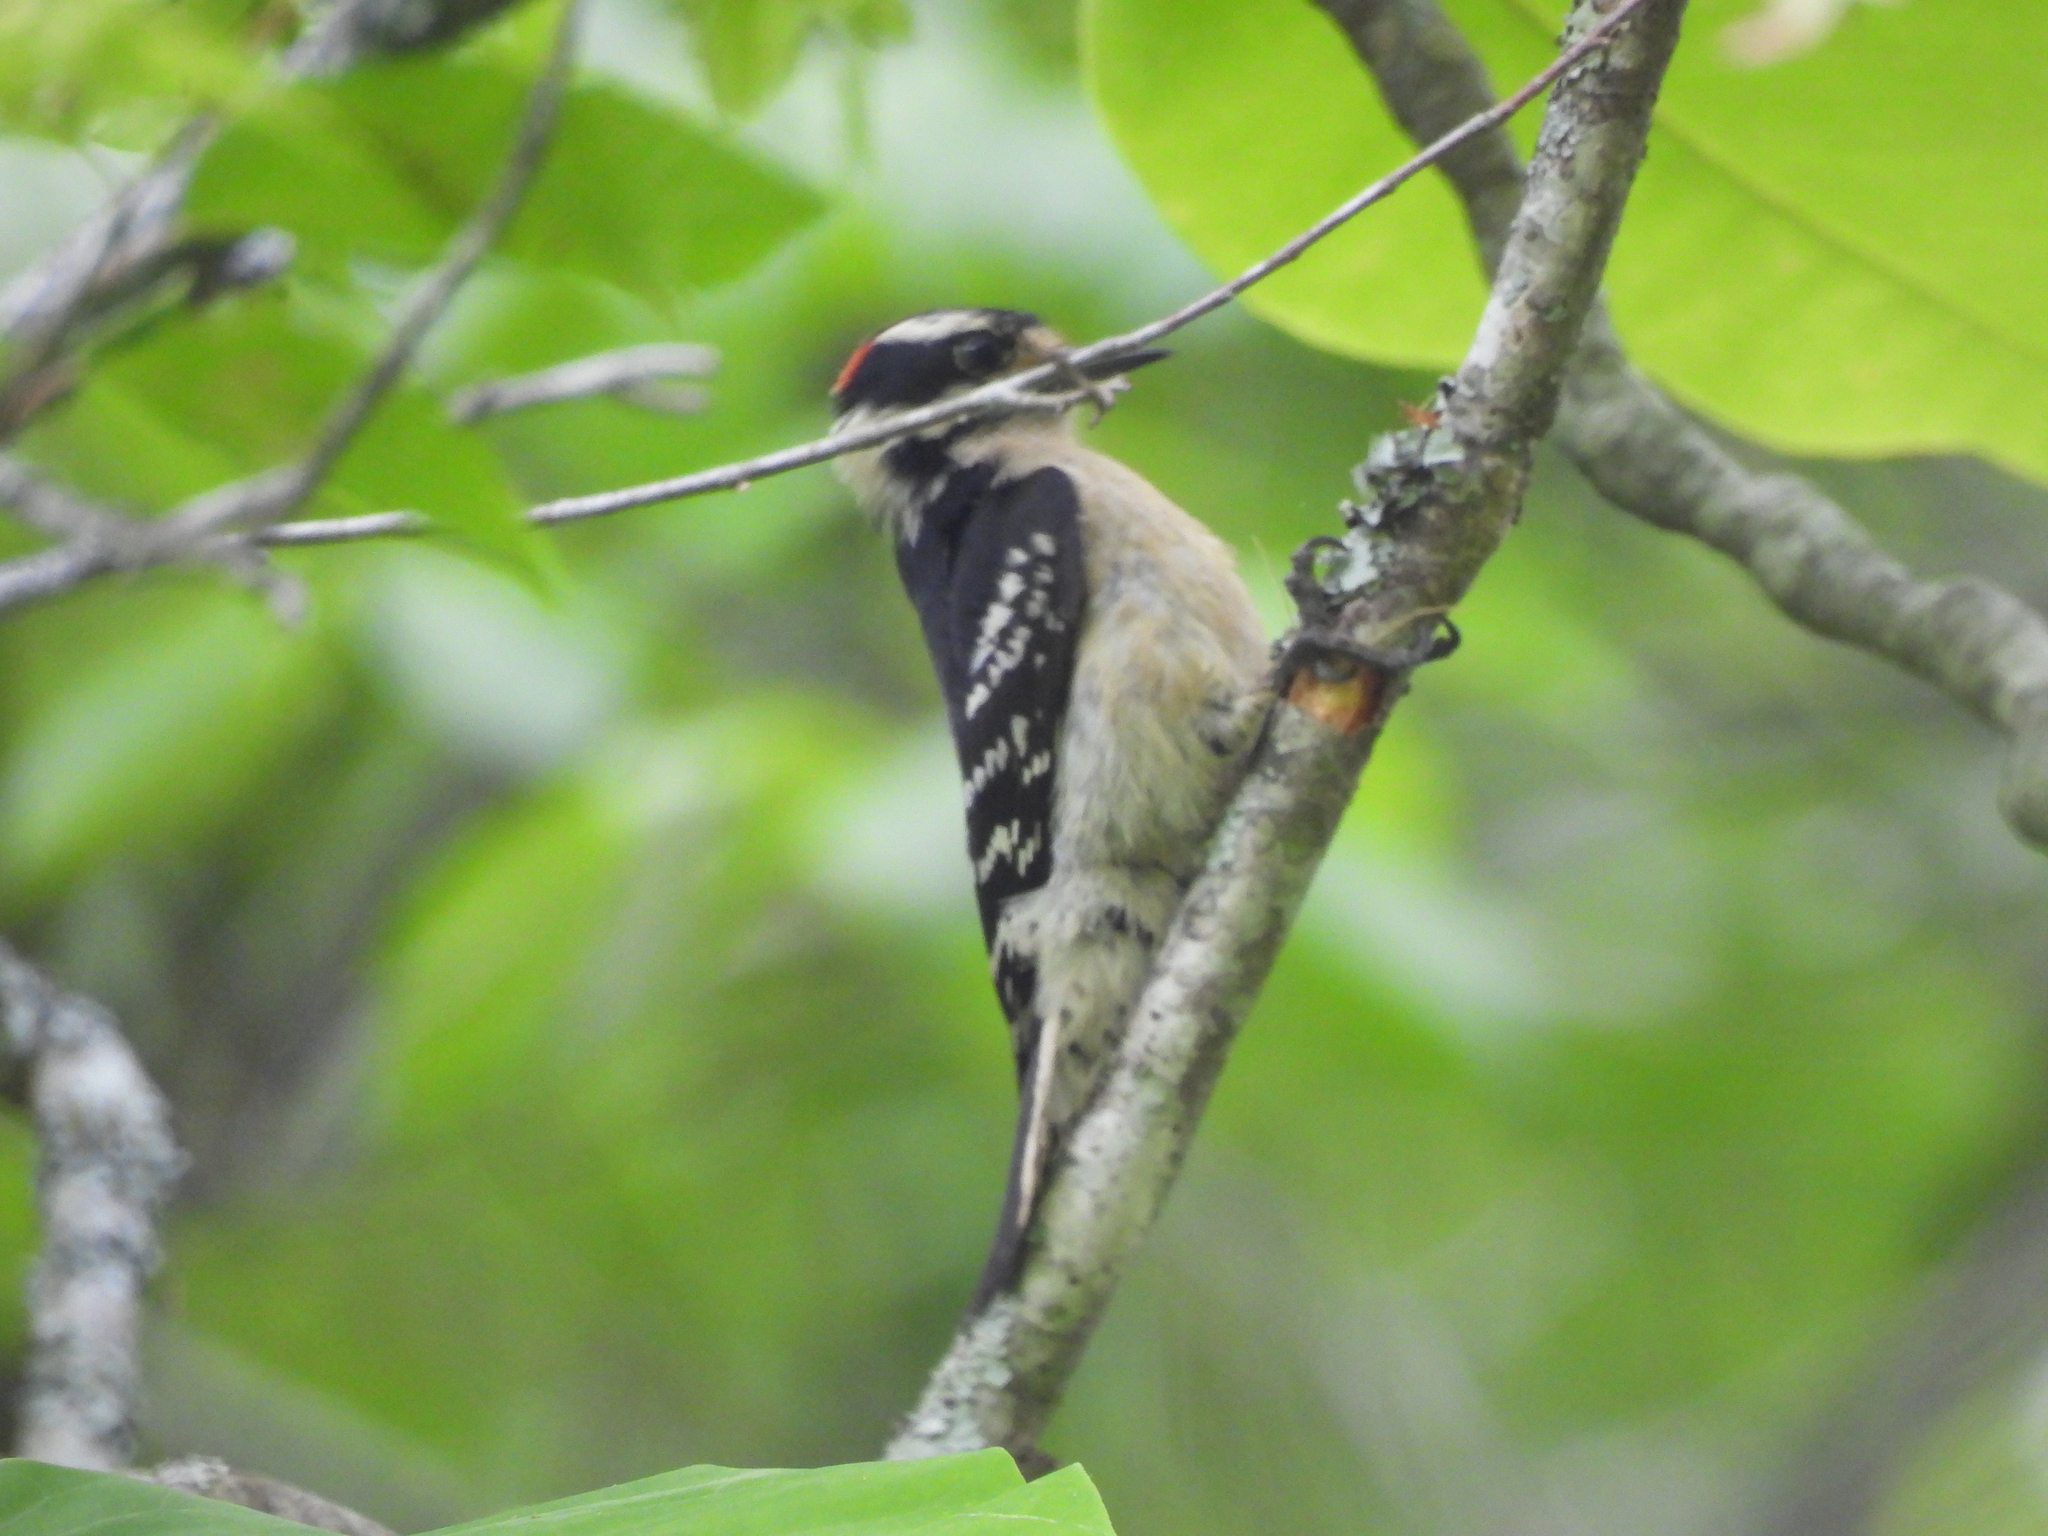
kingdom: Animalia
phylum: Chordata
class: Aves
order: Piciformes
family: Picidae
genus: Dryobates
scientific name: Dryobates pubescens
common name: Downy woodpecker
